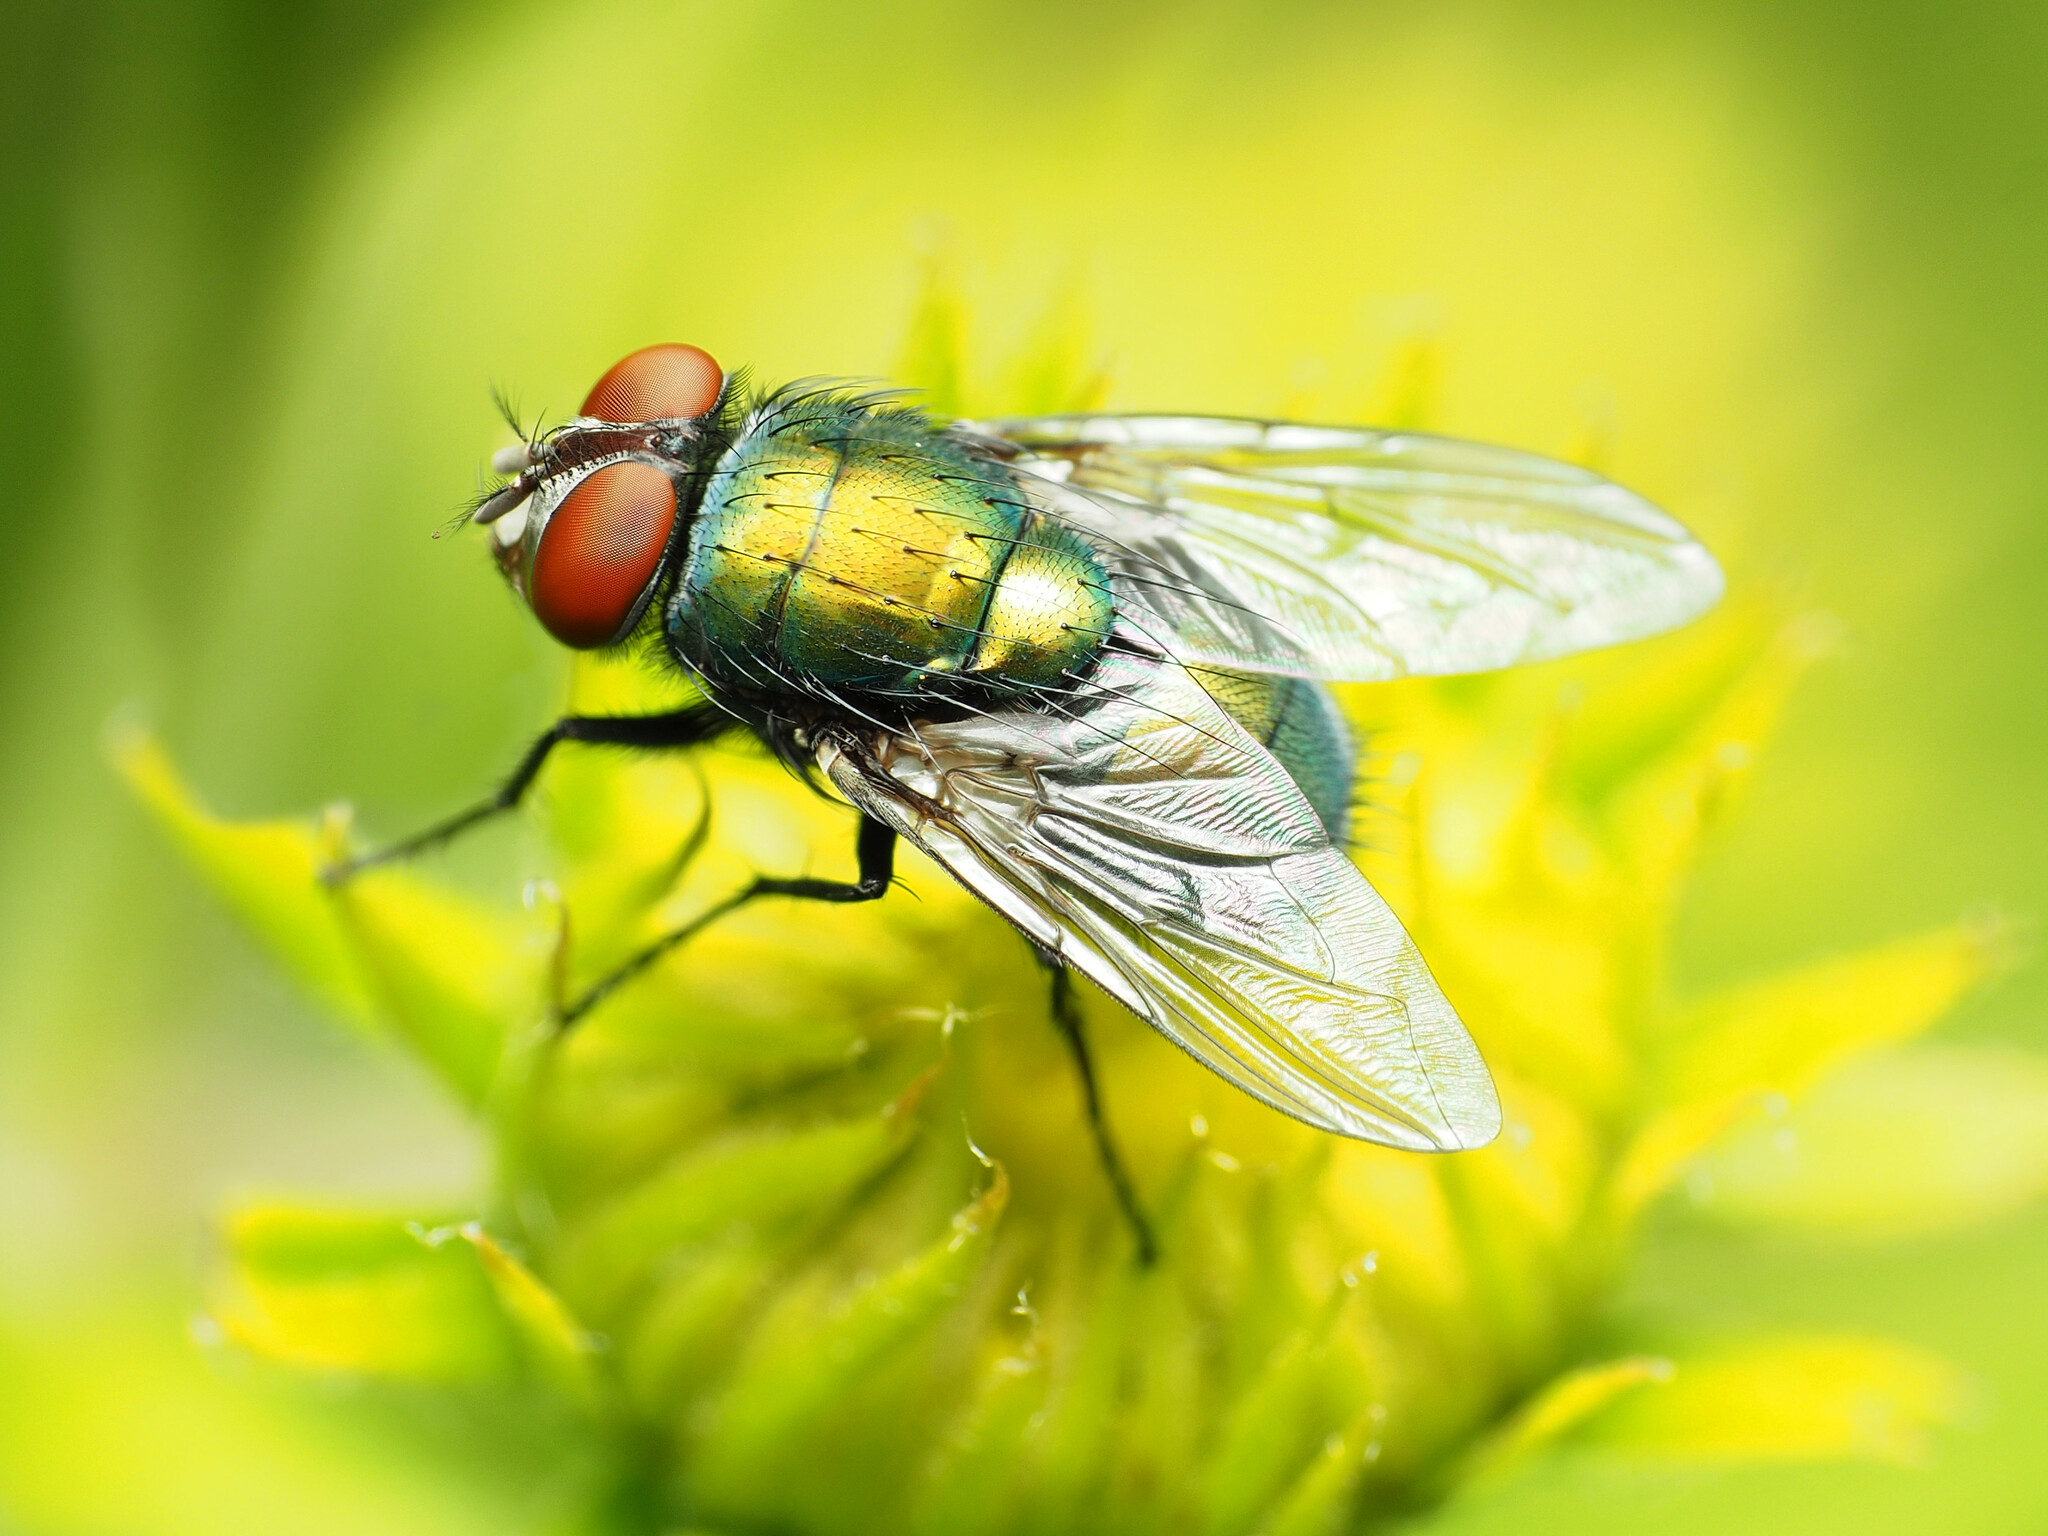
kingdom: Animalia
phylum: Arthropoda
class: Insecta
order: Diptera
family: Calliphoridae
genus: Lucilia
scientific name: Lucilia sericata
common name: Blow fly
